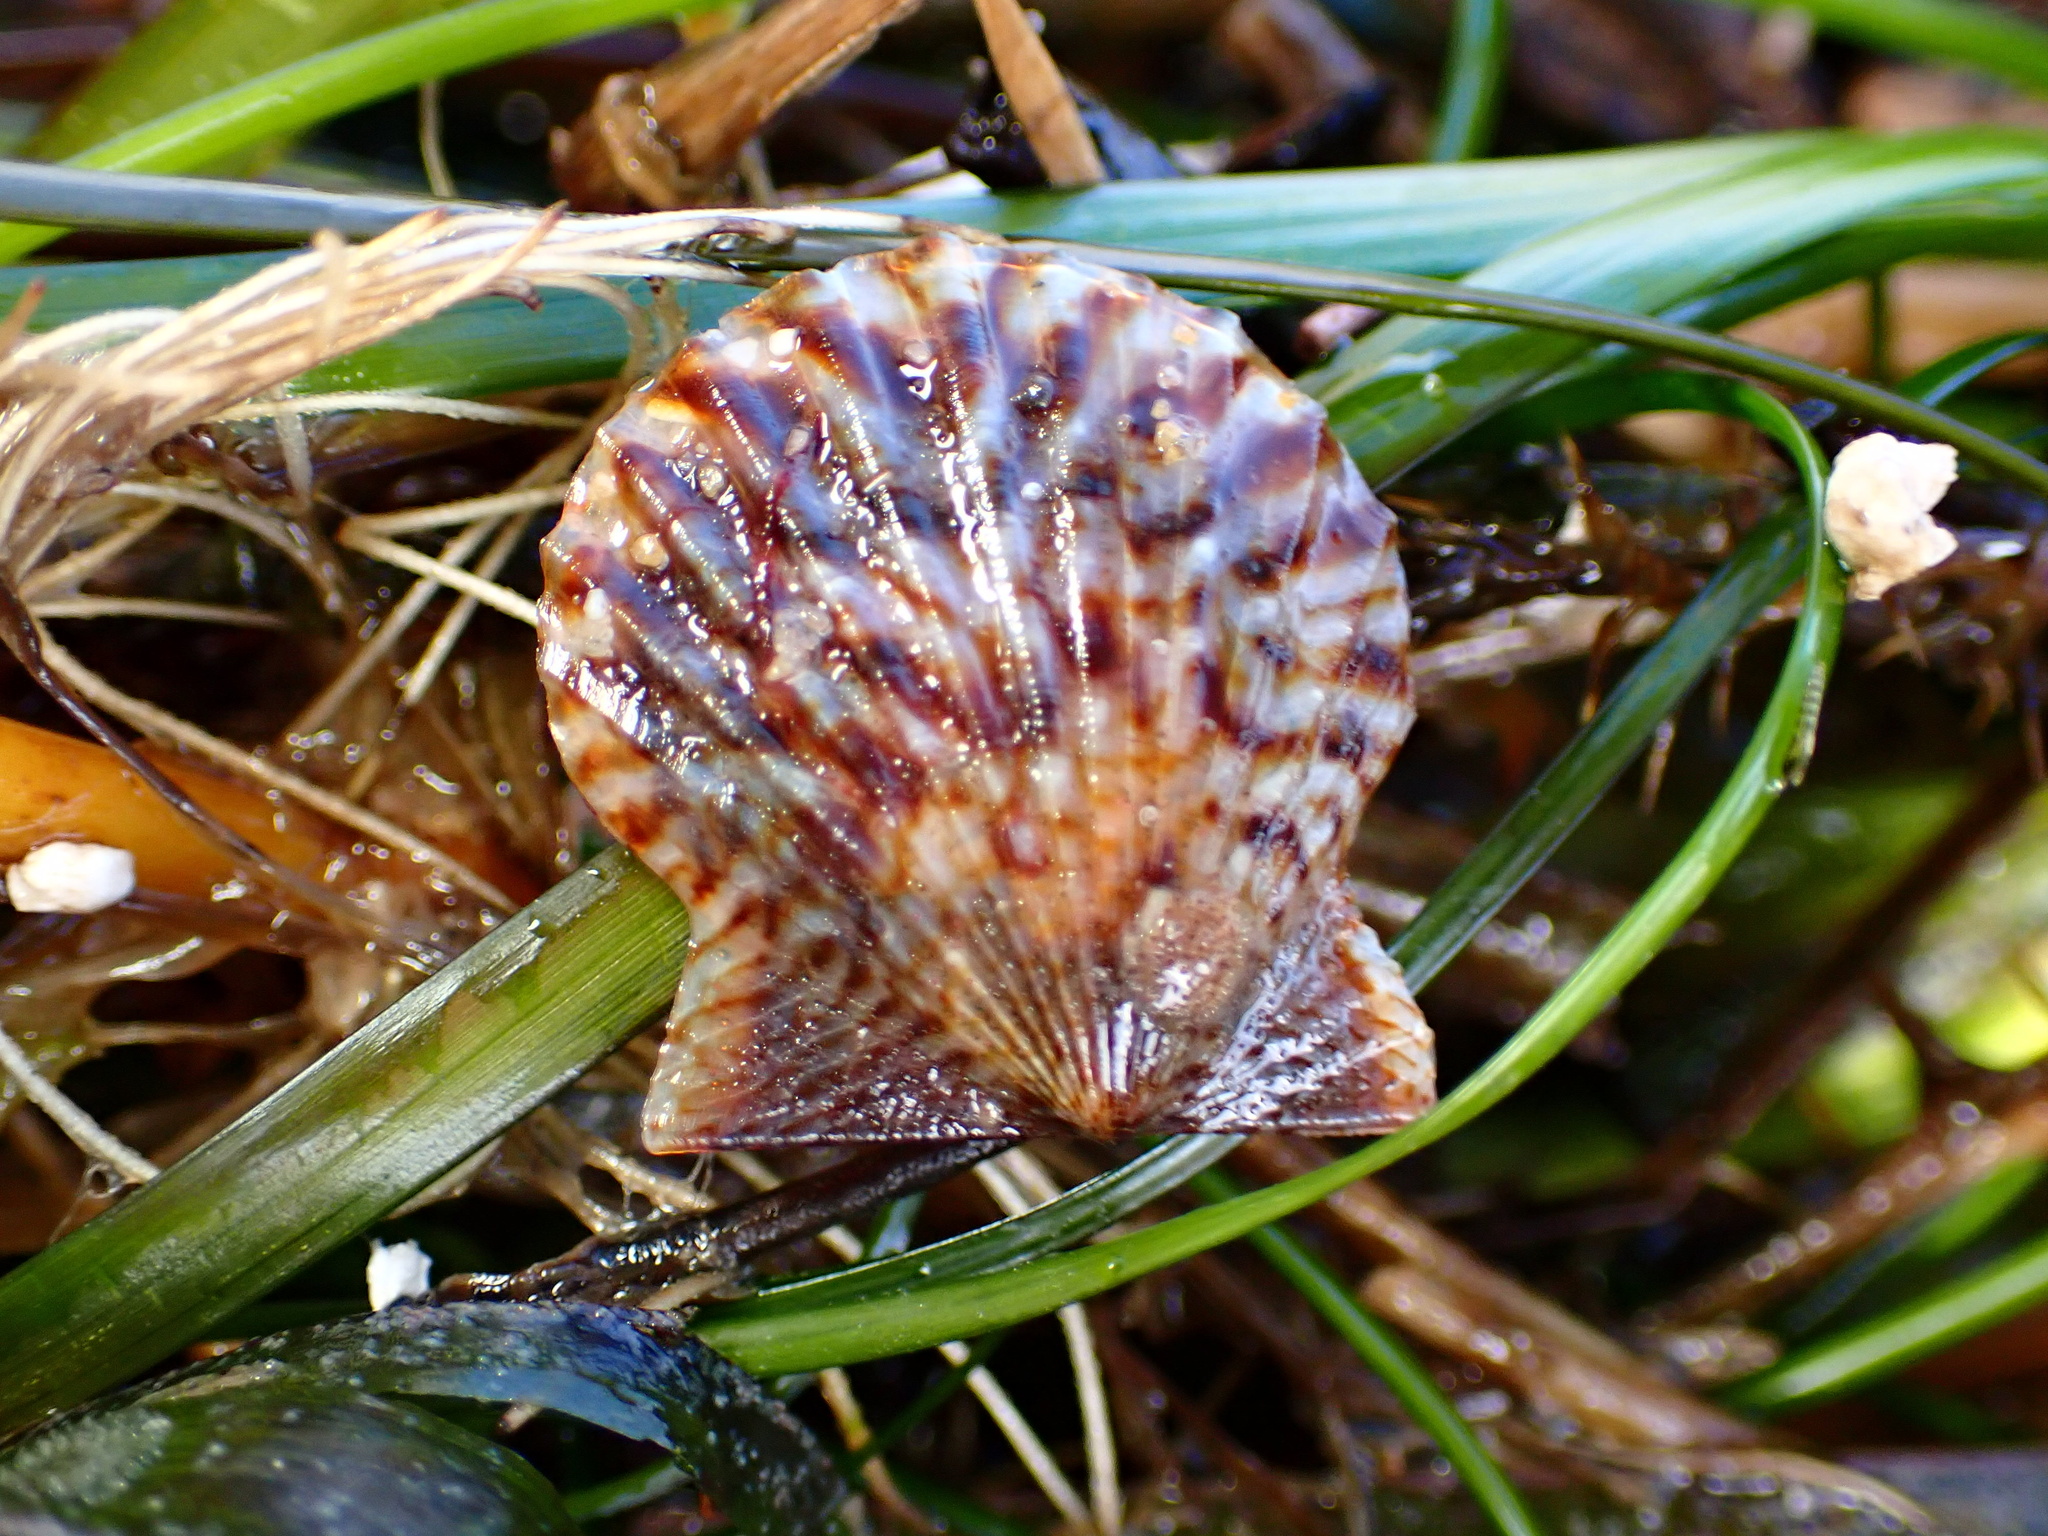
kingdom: Animalia
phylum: Mollusca
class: Bivalvia
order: Pectinida
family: Pectinidae
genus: Leptopecten
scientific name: Leptopecten latiauratus
